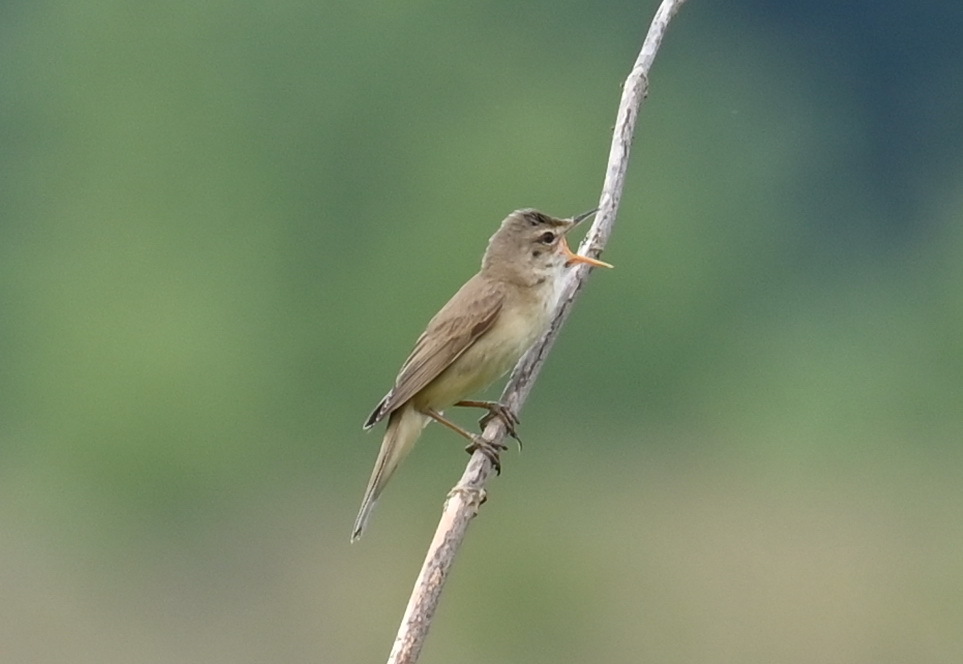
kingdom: Animalia
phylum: Chordata
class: Aves
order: Passeriformes
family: Acrocephalidae
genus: Acrocephalus
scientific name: Acrocephalus palustris
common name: Marsh warbler
